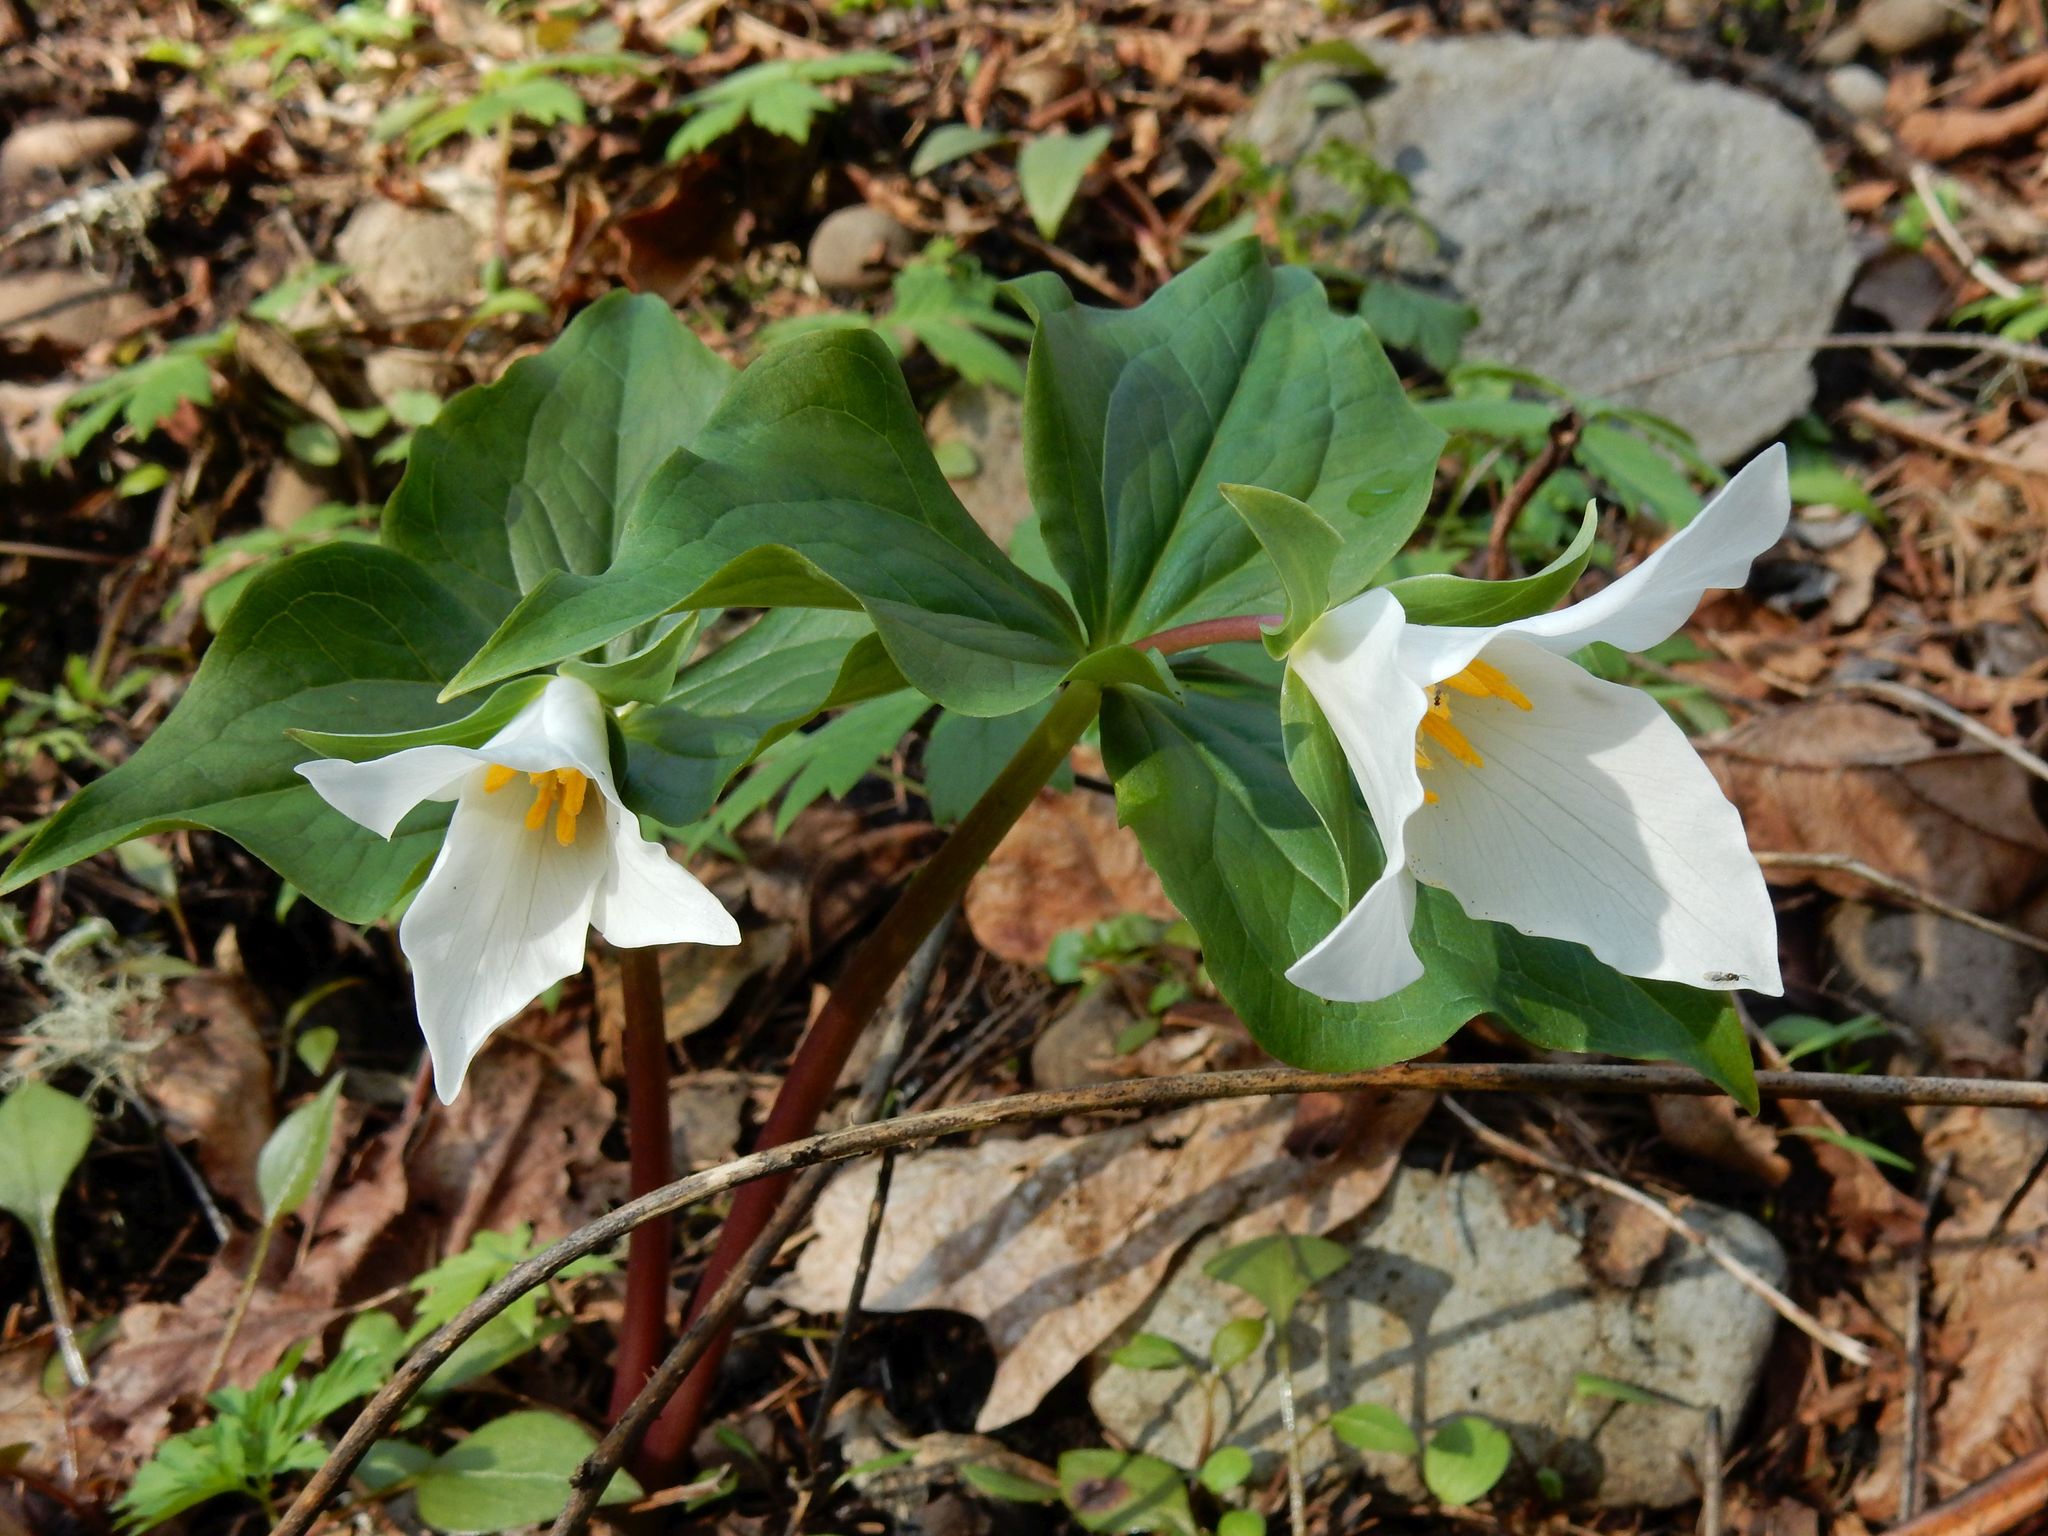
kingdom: Plantae
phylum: Tracheophyta
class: Liliopsida
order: Liliales
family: Melanthiaceae
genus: Trillium
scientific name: Trillium ovatum
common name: Pacific trillium
